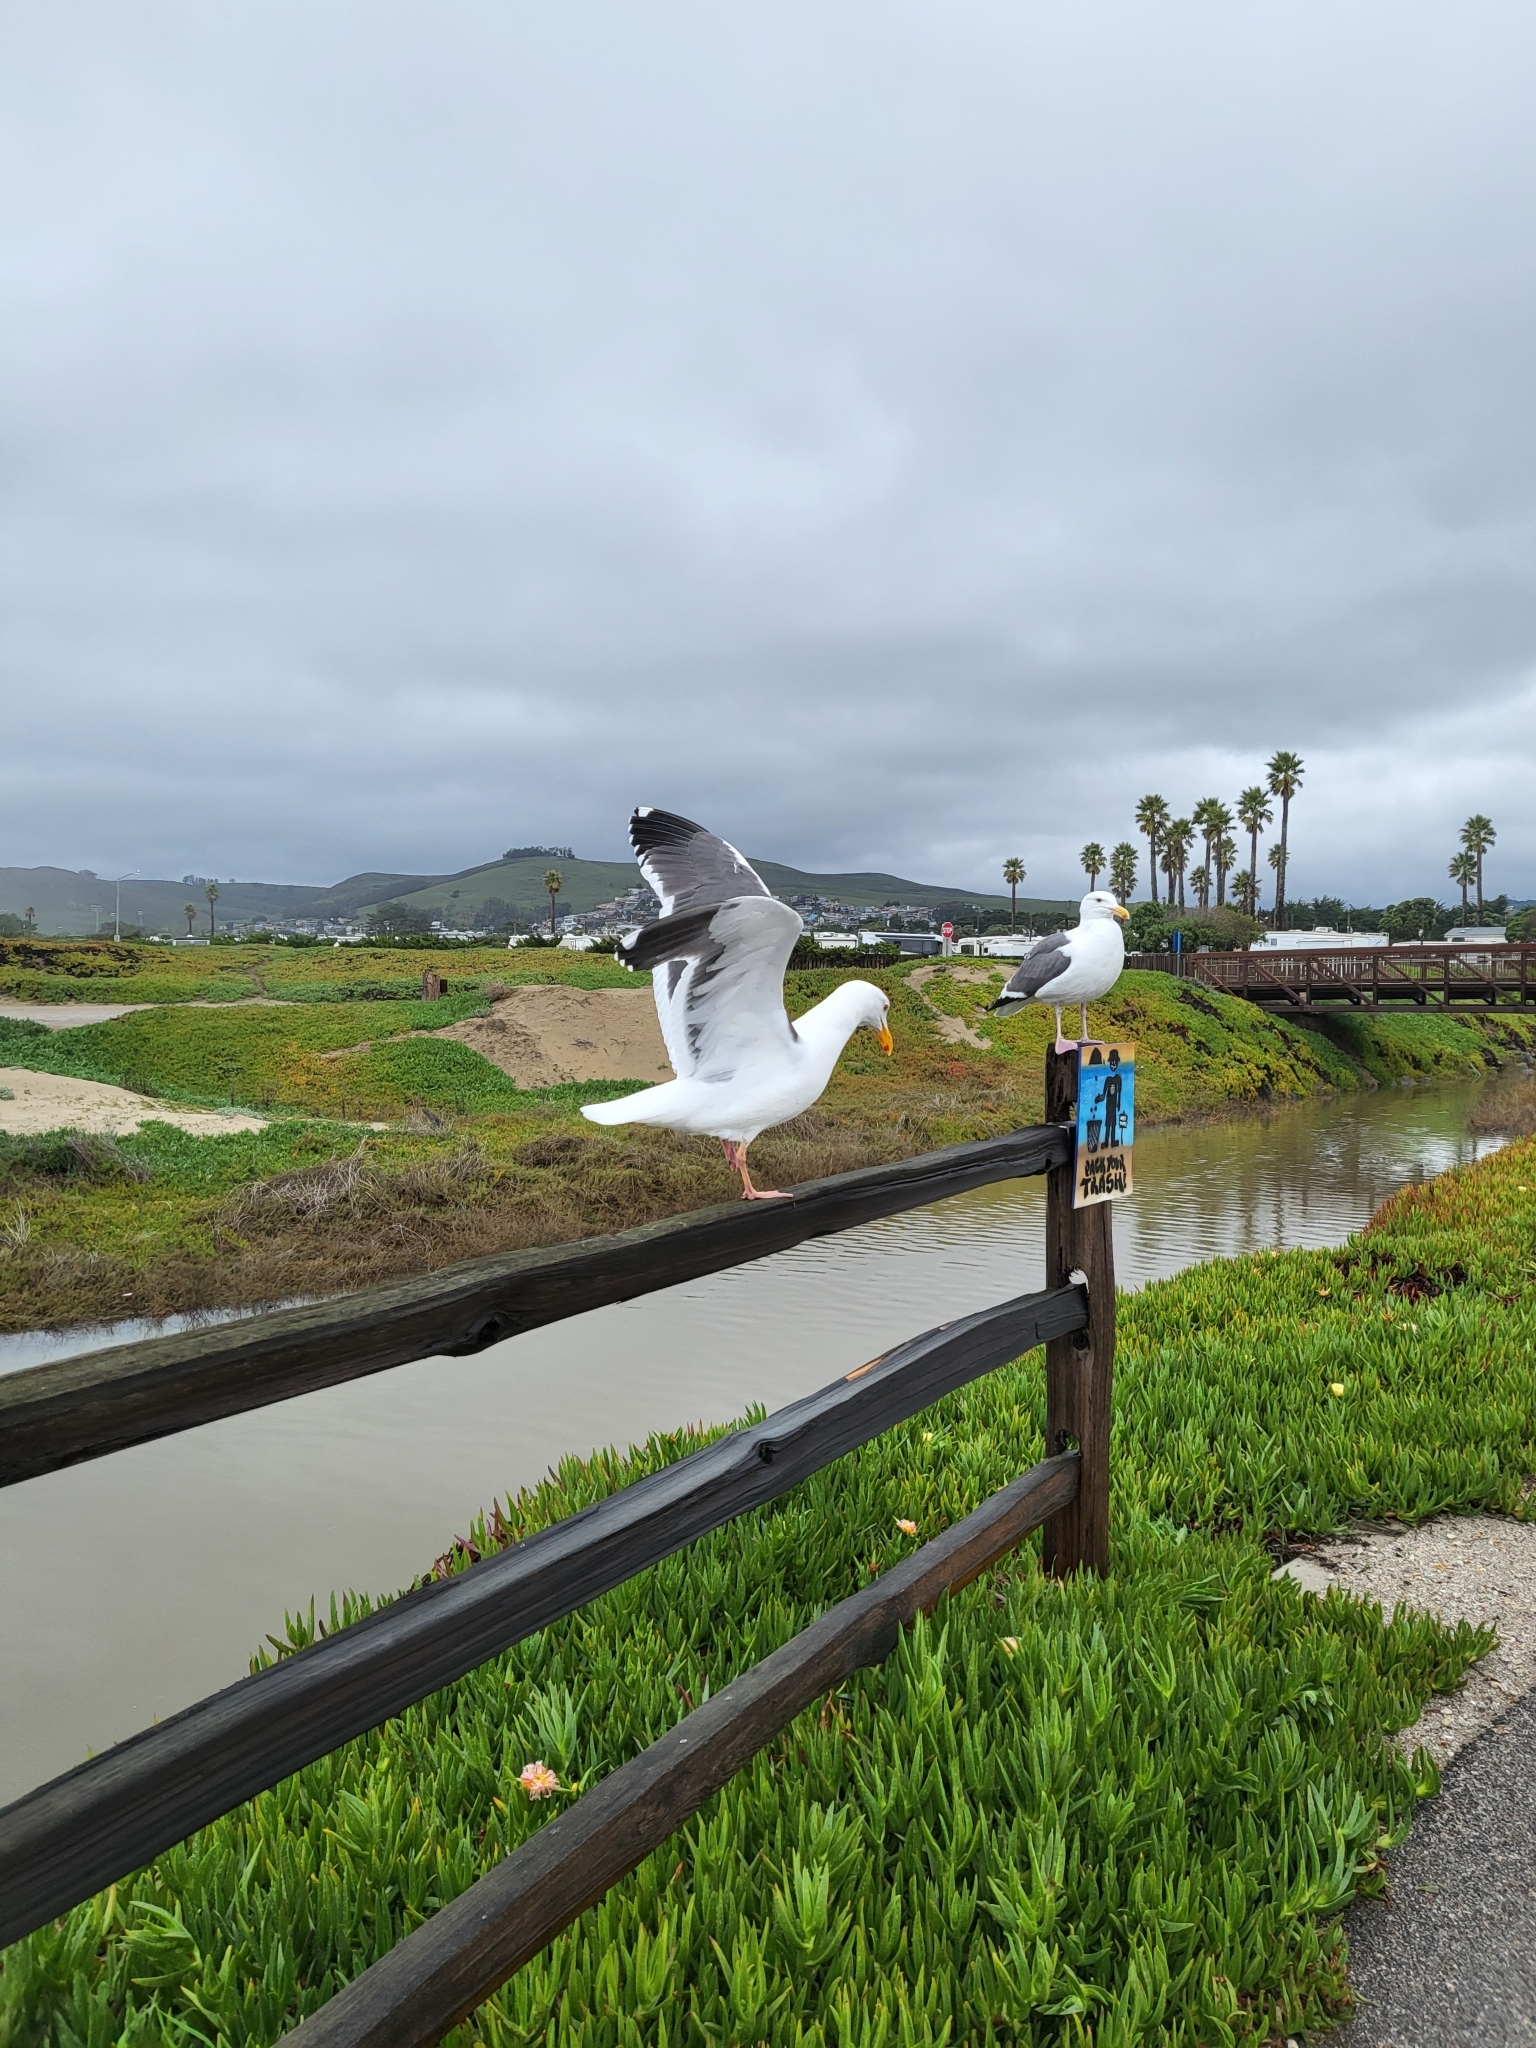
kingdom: Animalia
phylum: Chordata
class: Aves
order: Charadriiformes
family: Laridae
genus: Larus
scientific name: Larus occidentalis
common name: Western gull
